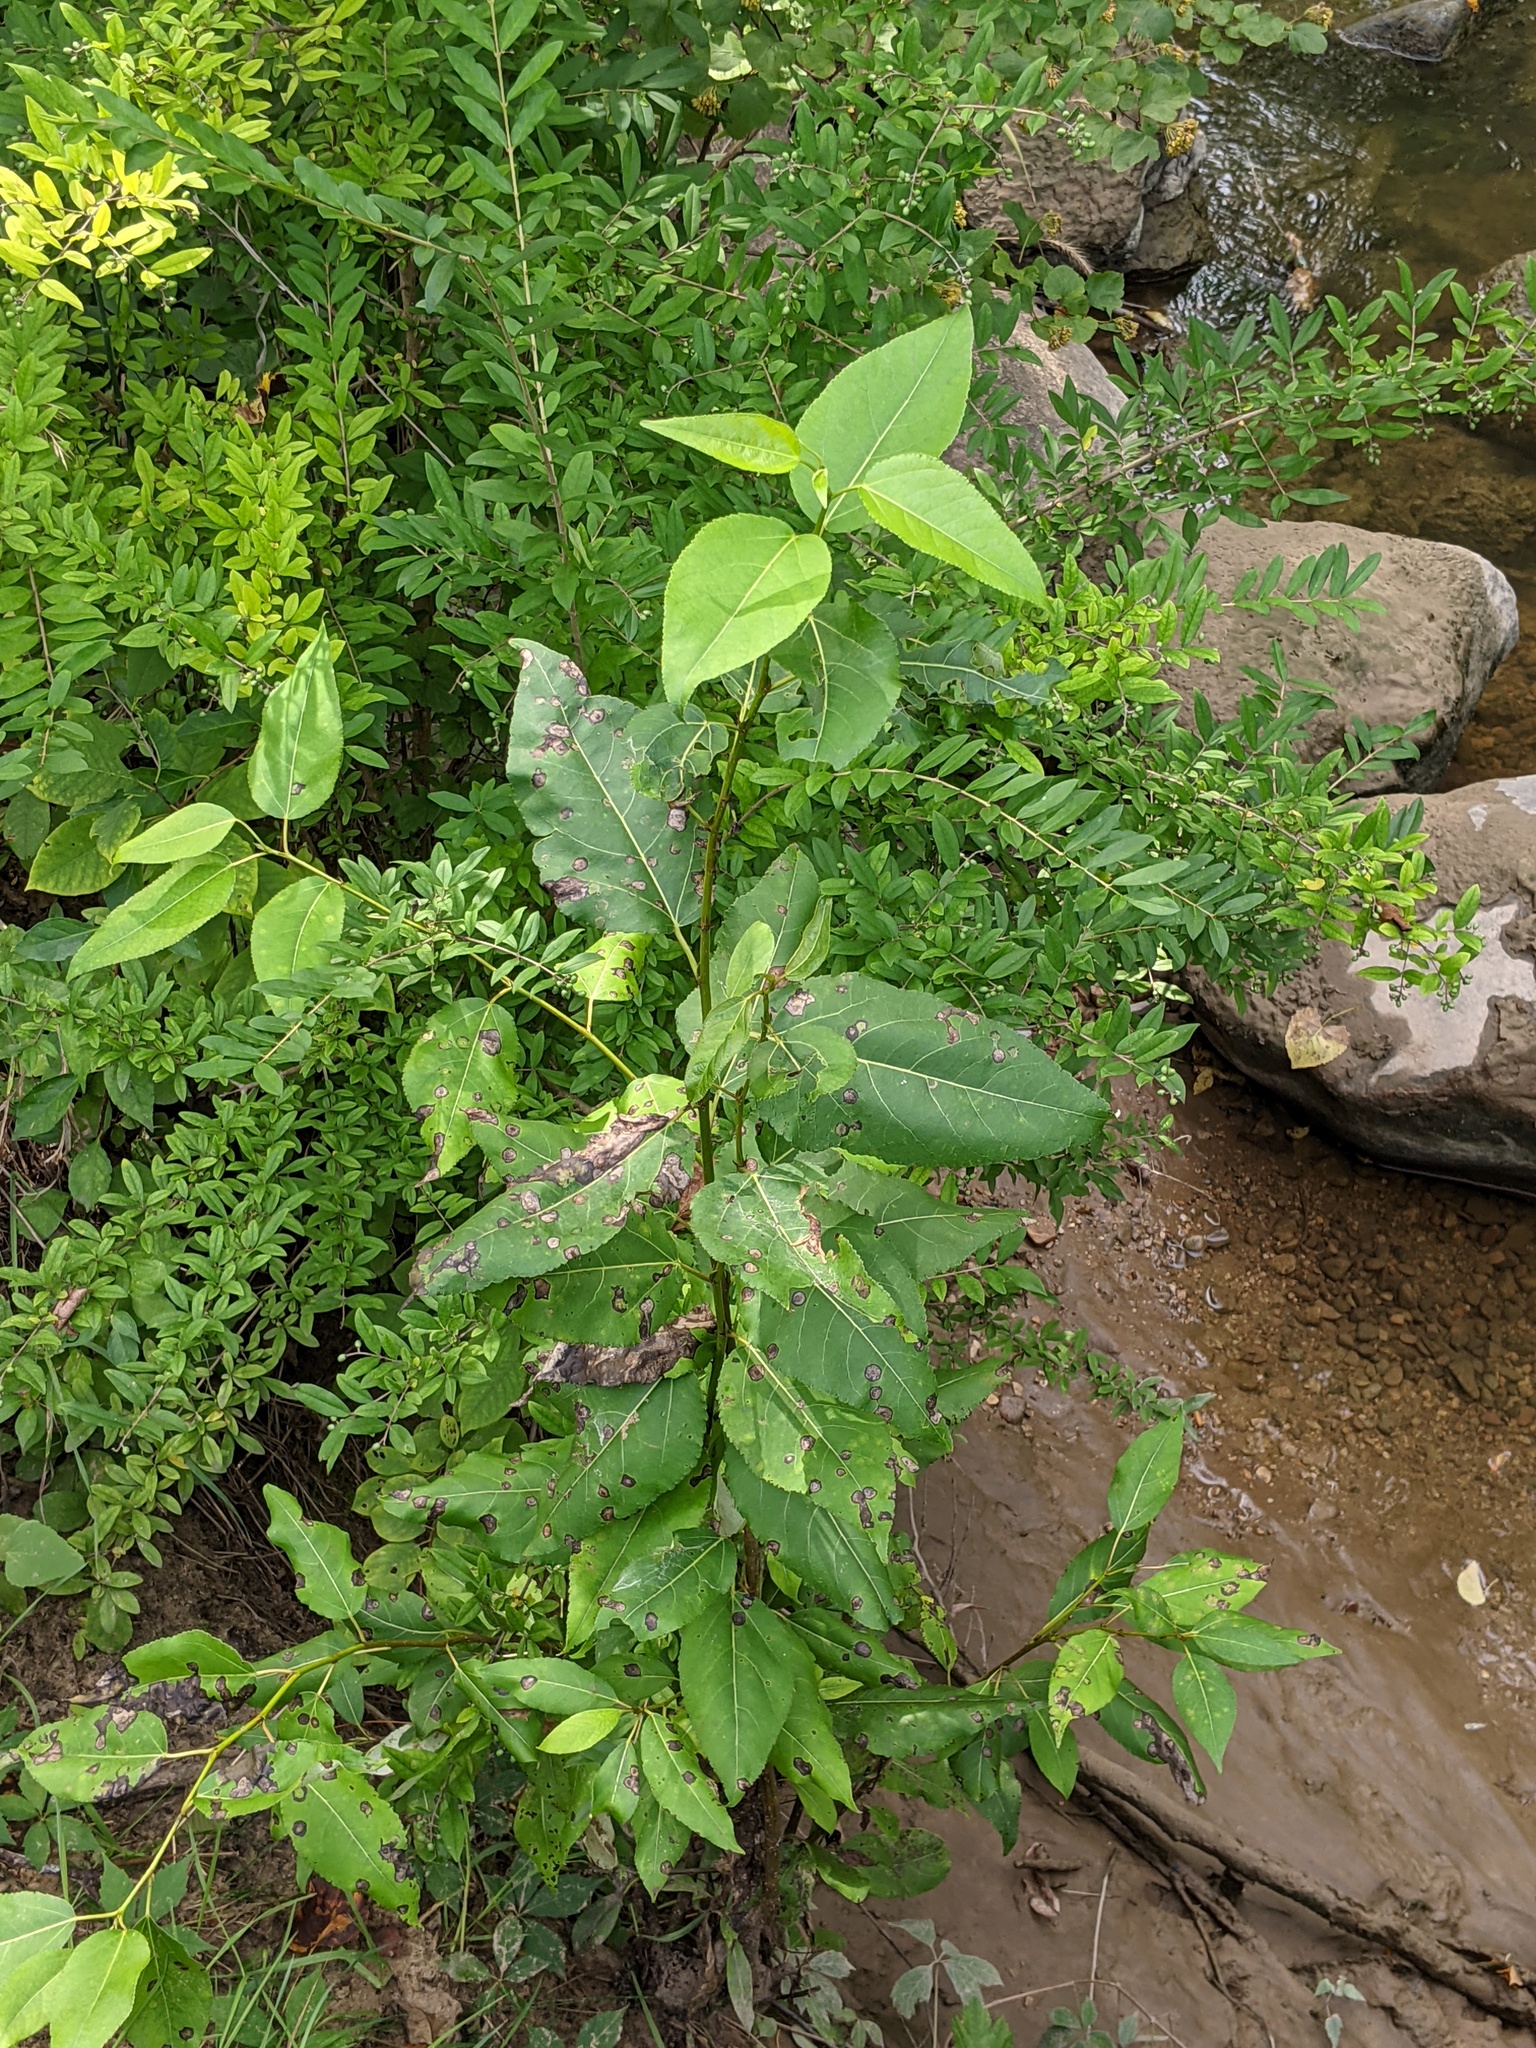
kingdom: Plantae
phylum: Tracheophyta
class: Magnoliopsida
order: Malpighiales
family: Salicaceae
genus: Populus
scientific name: Populus balsamifera
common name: Balsam poplar
